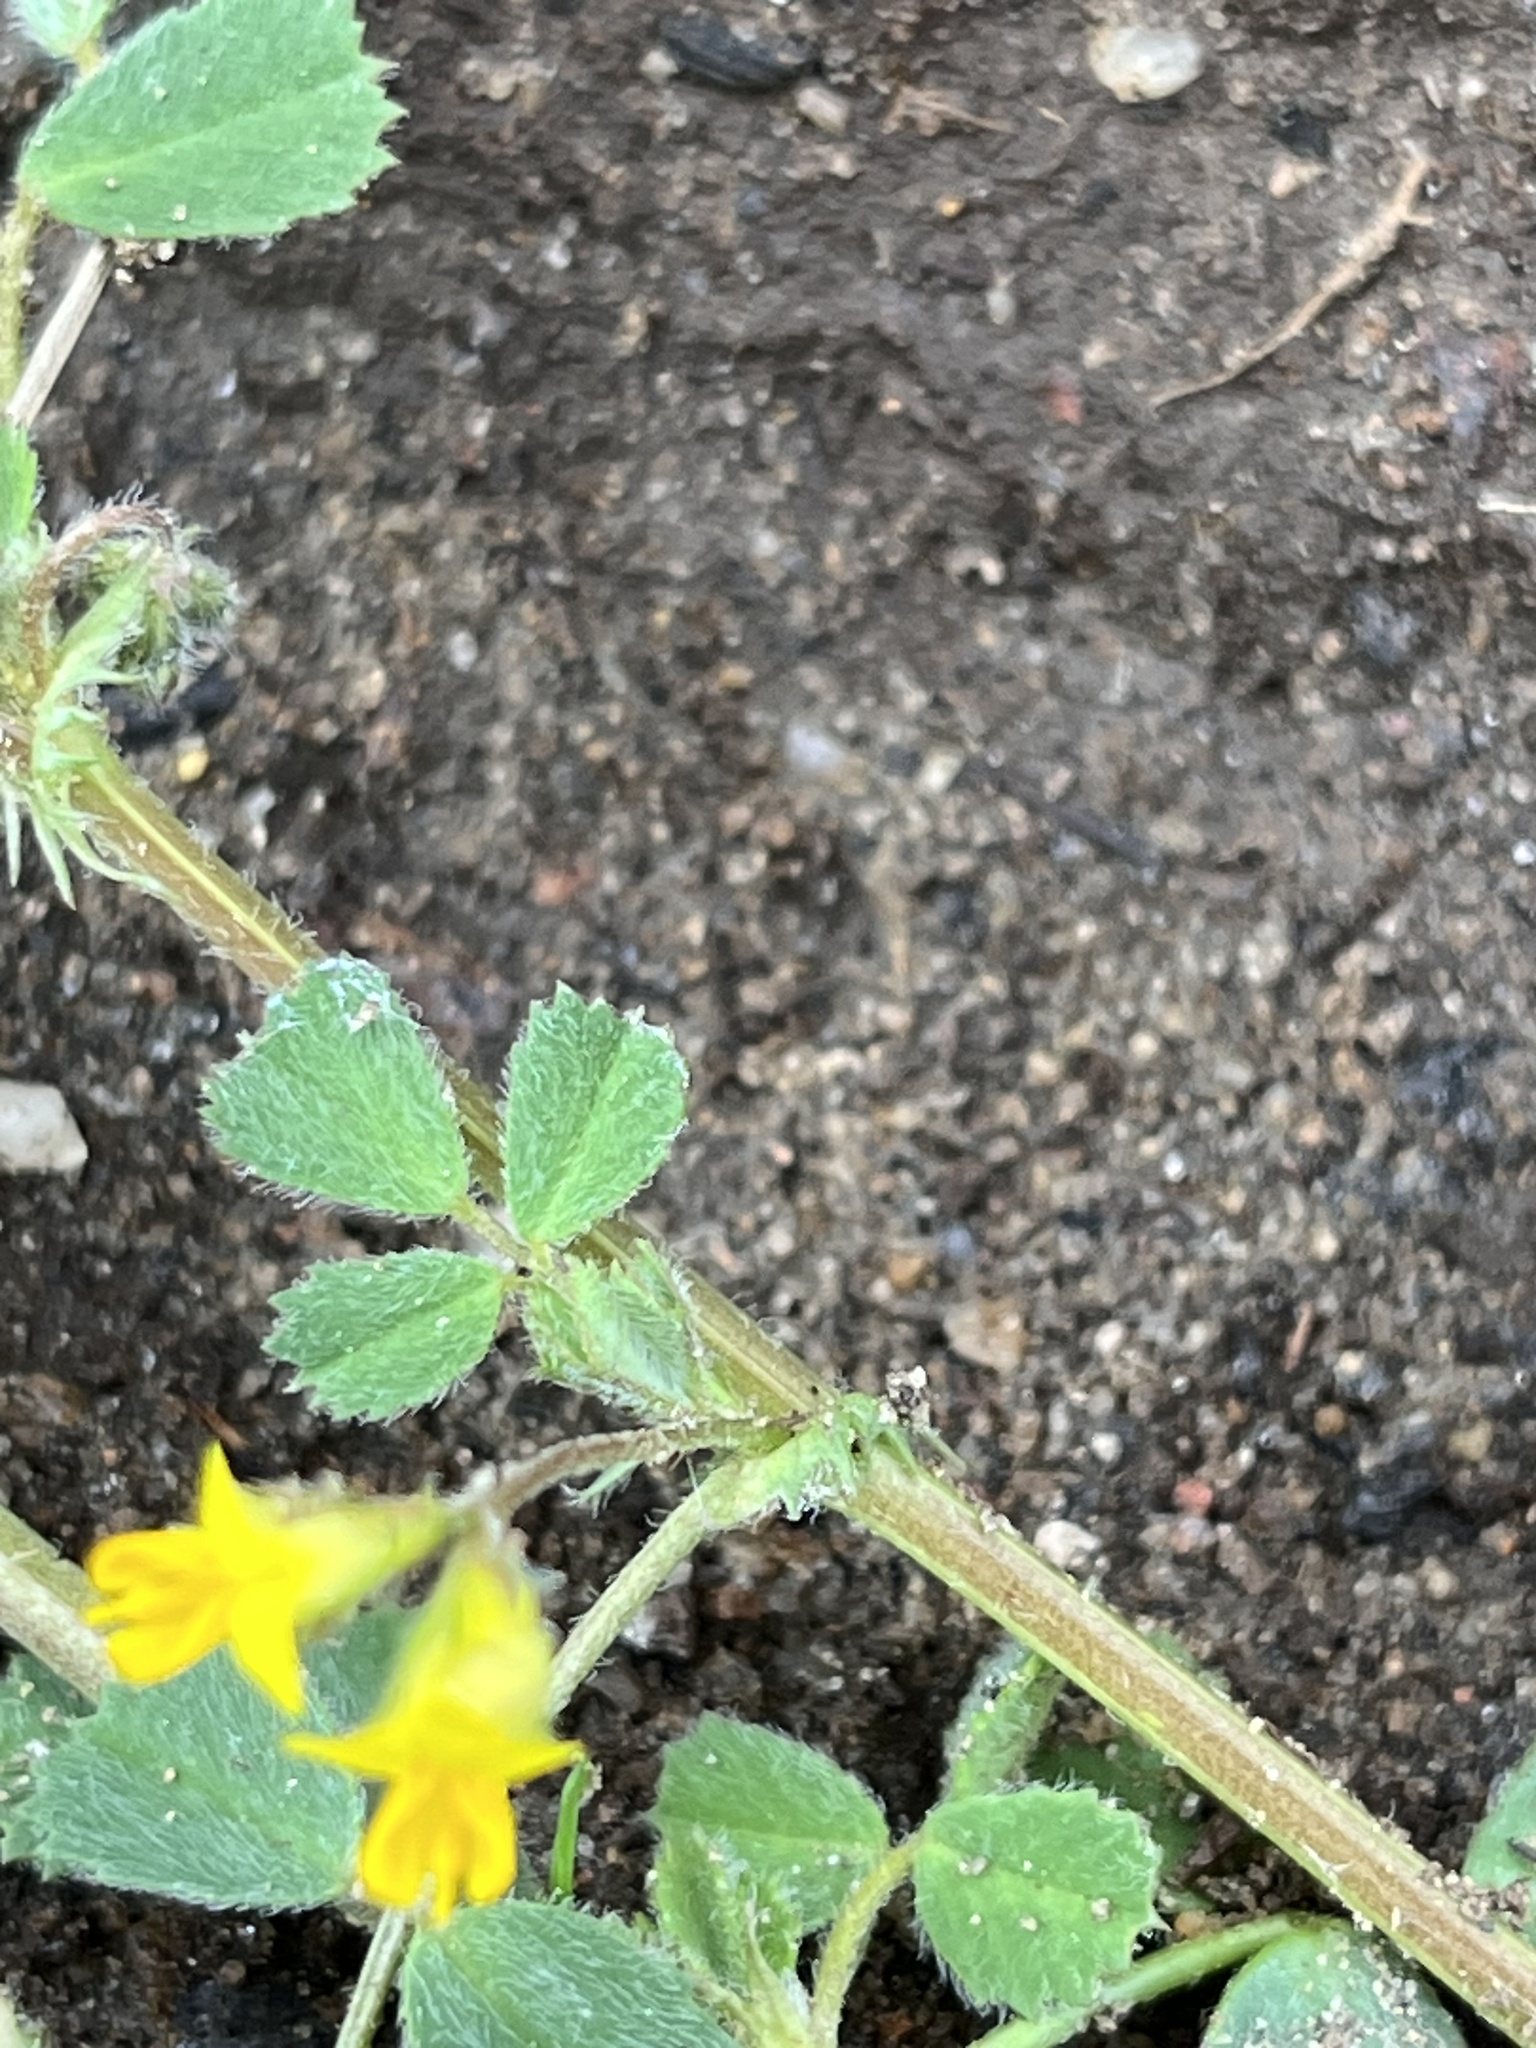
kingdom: Plantae
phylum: Tracheophyta
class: Magnoliopsida
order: Fabales
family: Fabaceae
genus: Medicago
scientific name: Medicago truncatula
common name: Strong-spined medick
